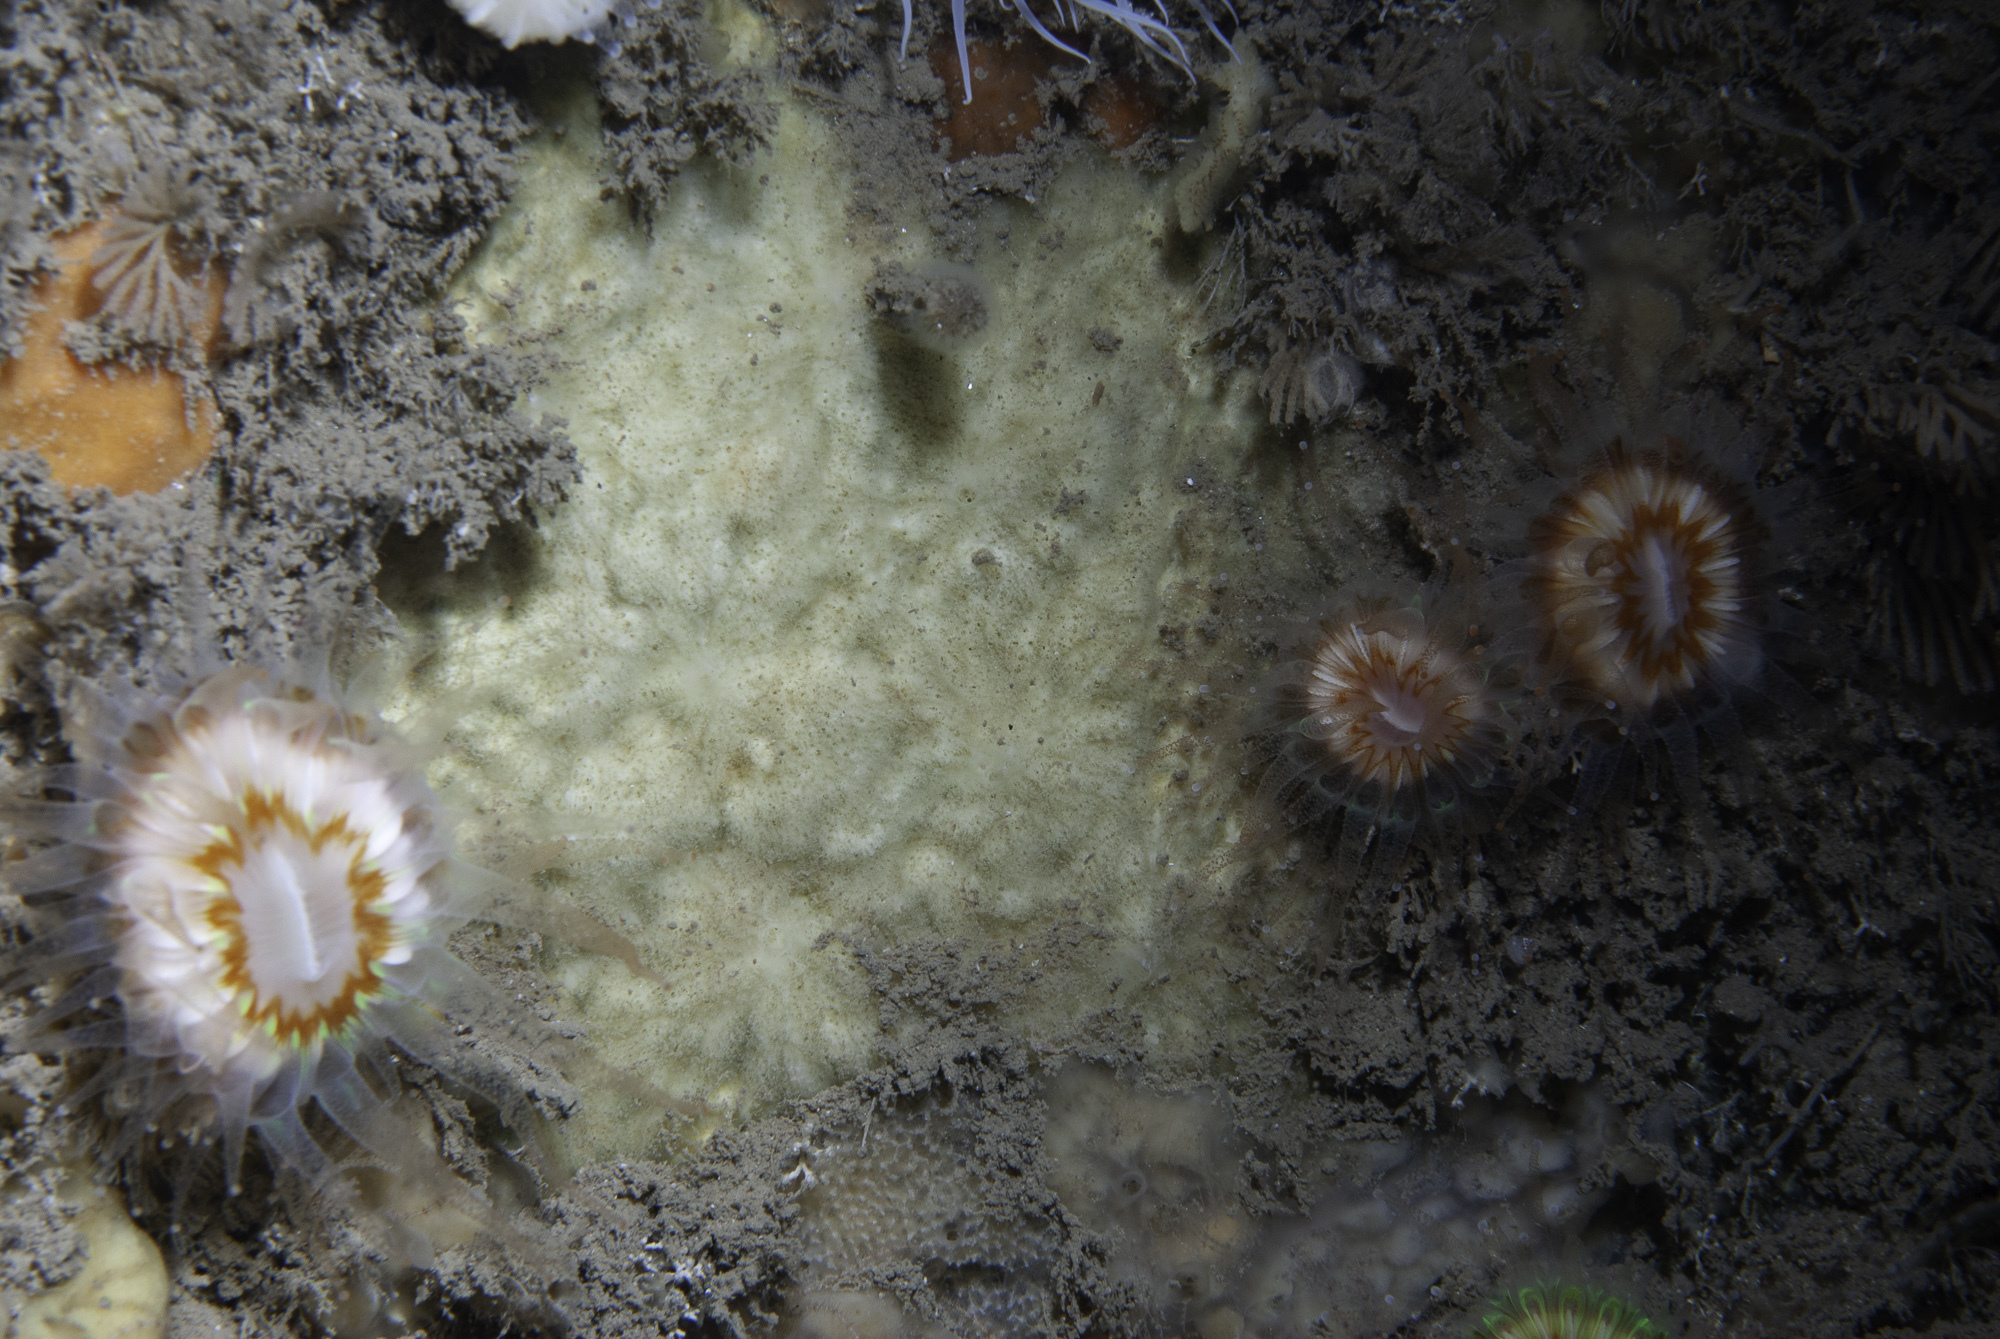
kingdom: Animalia
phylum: Porifera
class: Demospongiae
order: Poecilosclerida
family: Microcionidae
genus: Clathria
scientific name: Clathria elliptichela
